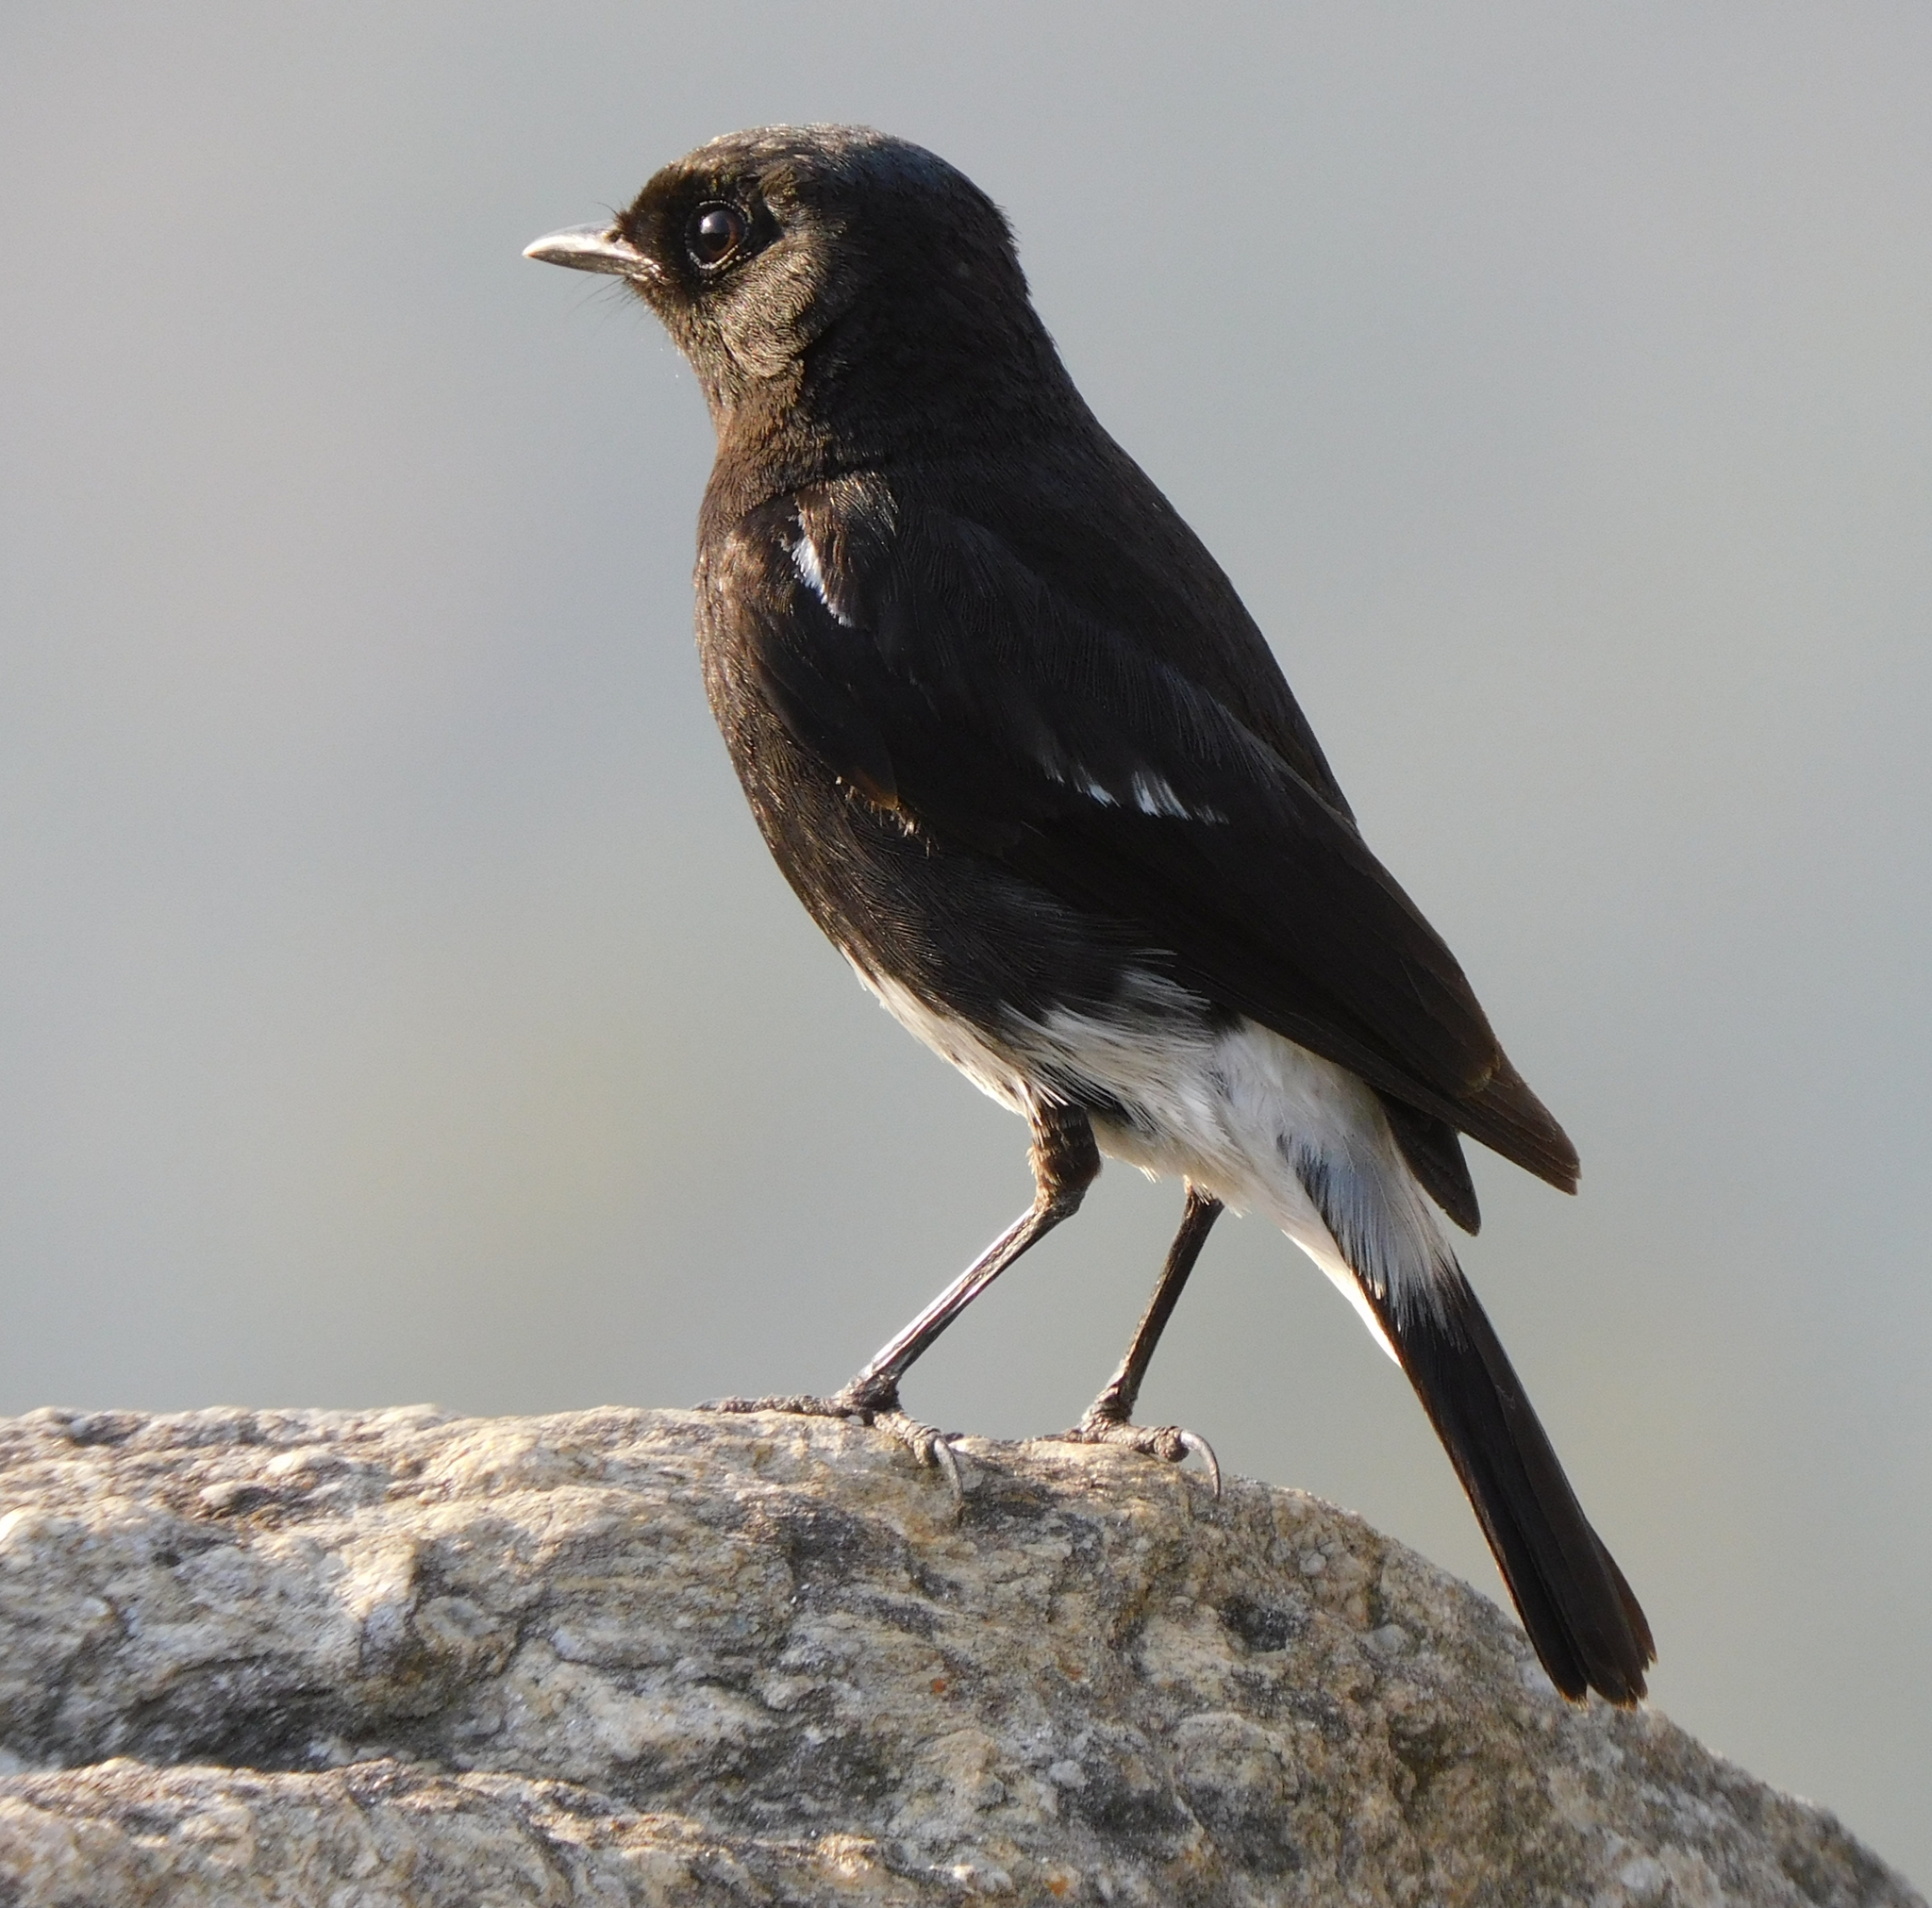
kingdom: Animalia
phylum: Chordata
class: Aves
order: Passeriformes
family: Muscicapidae
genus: Saxicola
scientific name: Saxicola caprata
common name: Pied bush chat
